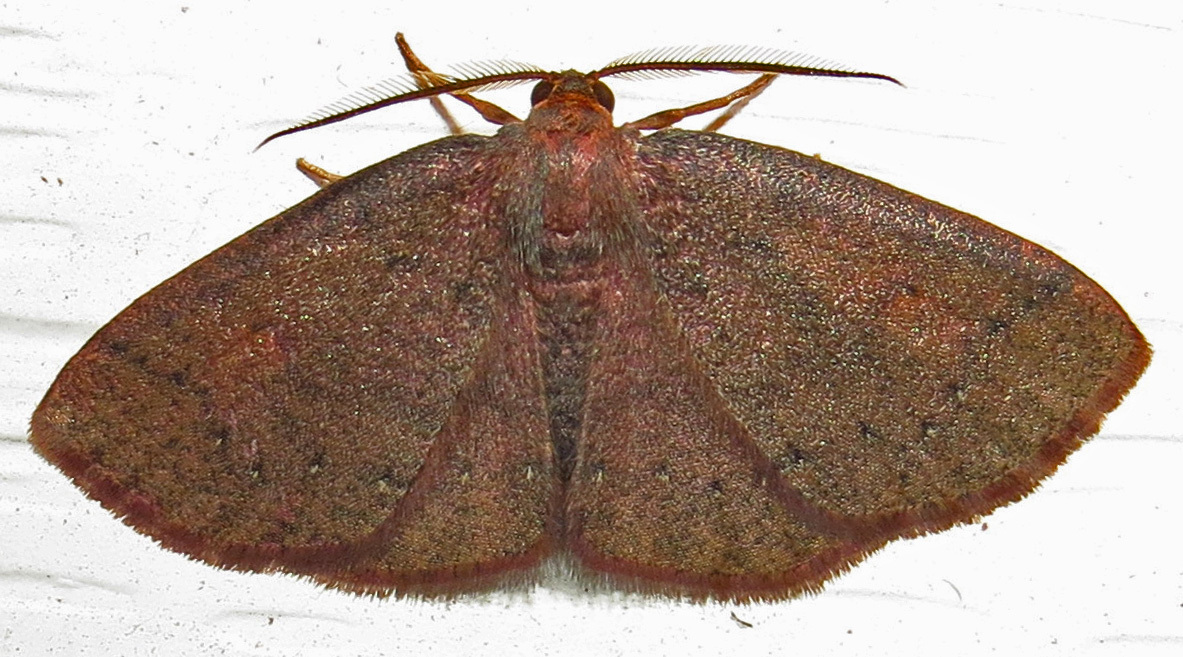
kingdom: Animalia
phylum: Arthropoda
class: Insecta
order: Lepidoptera
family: Geometridae
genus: Ilexia
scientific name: Ilexia intractata
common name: Black-dotted ruddy moth
